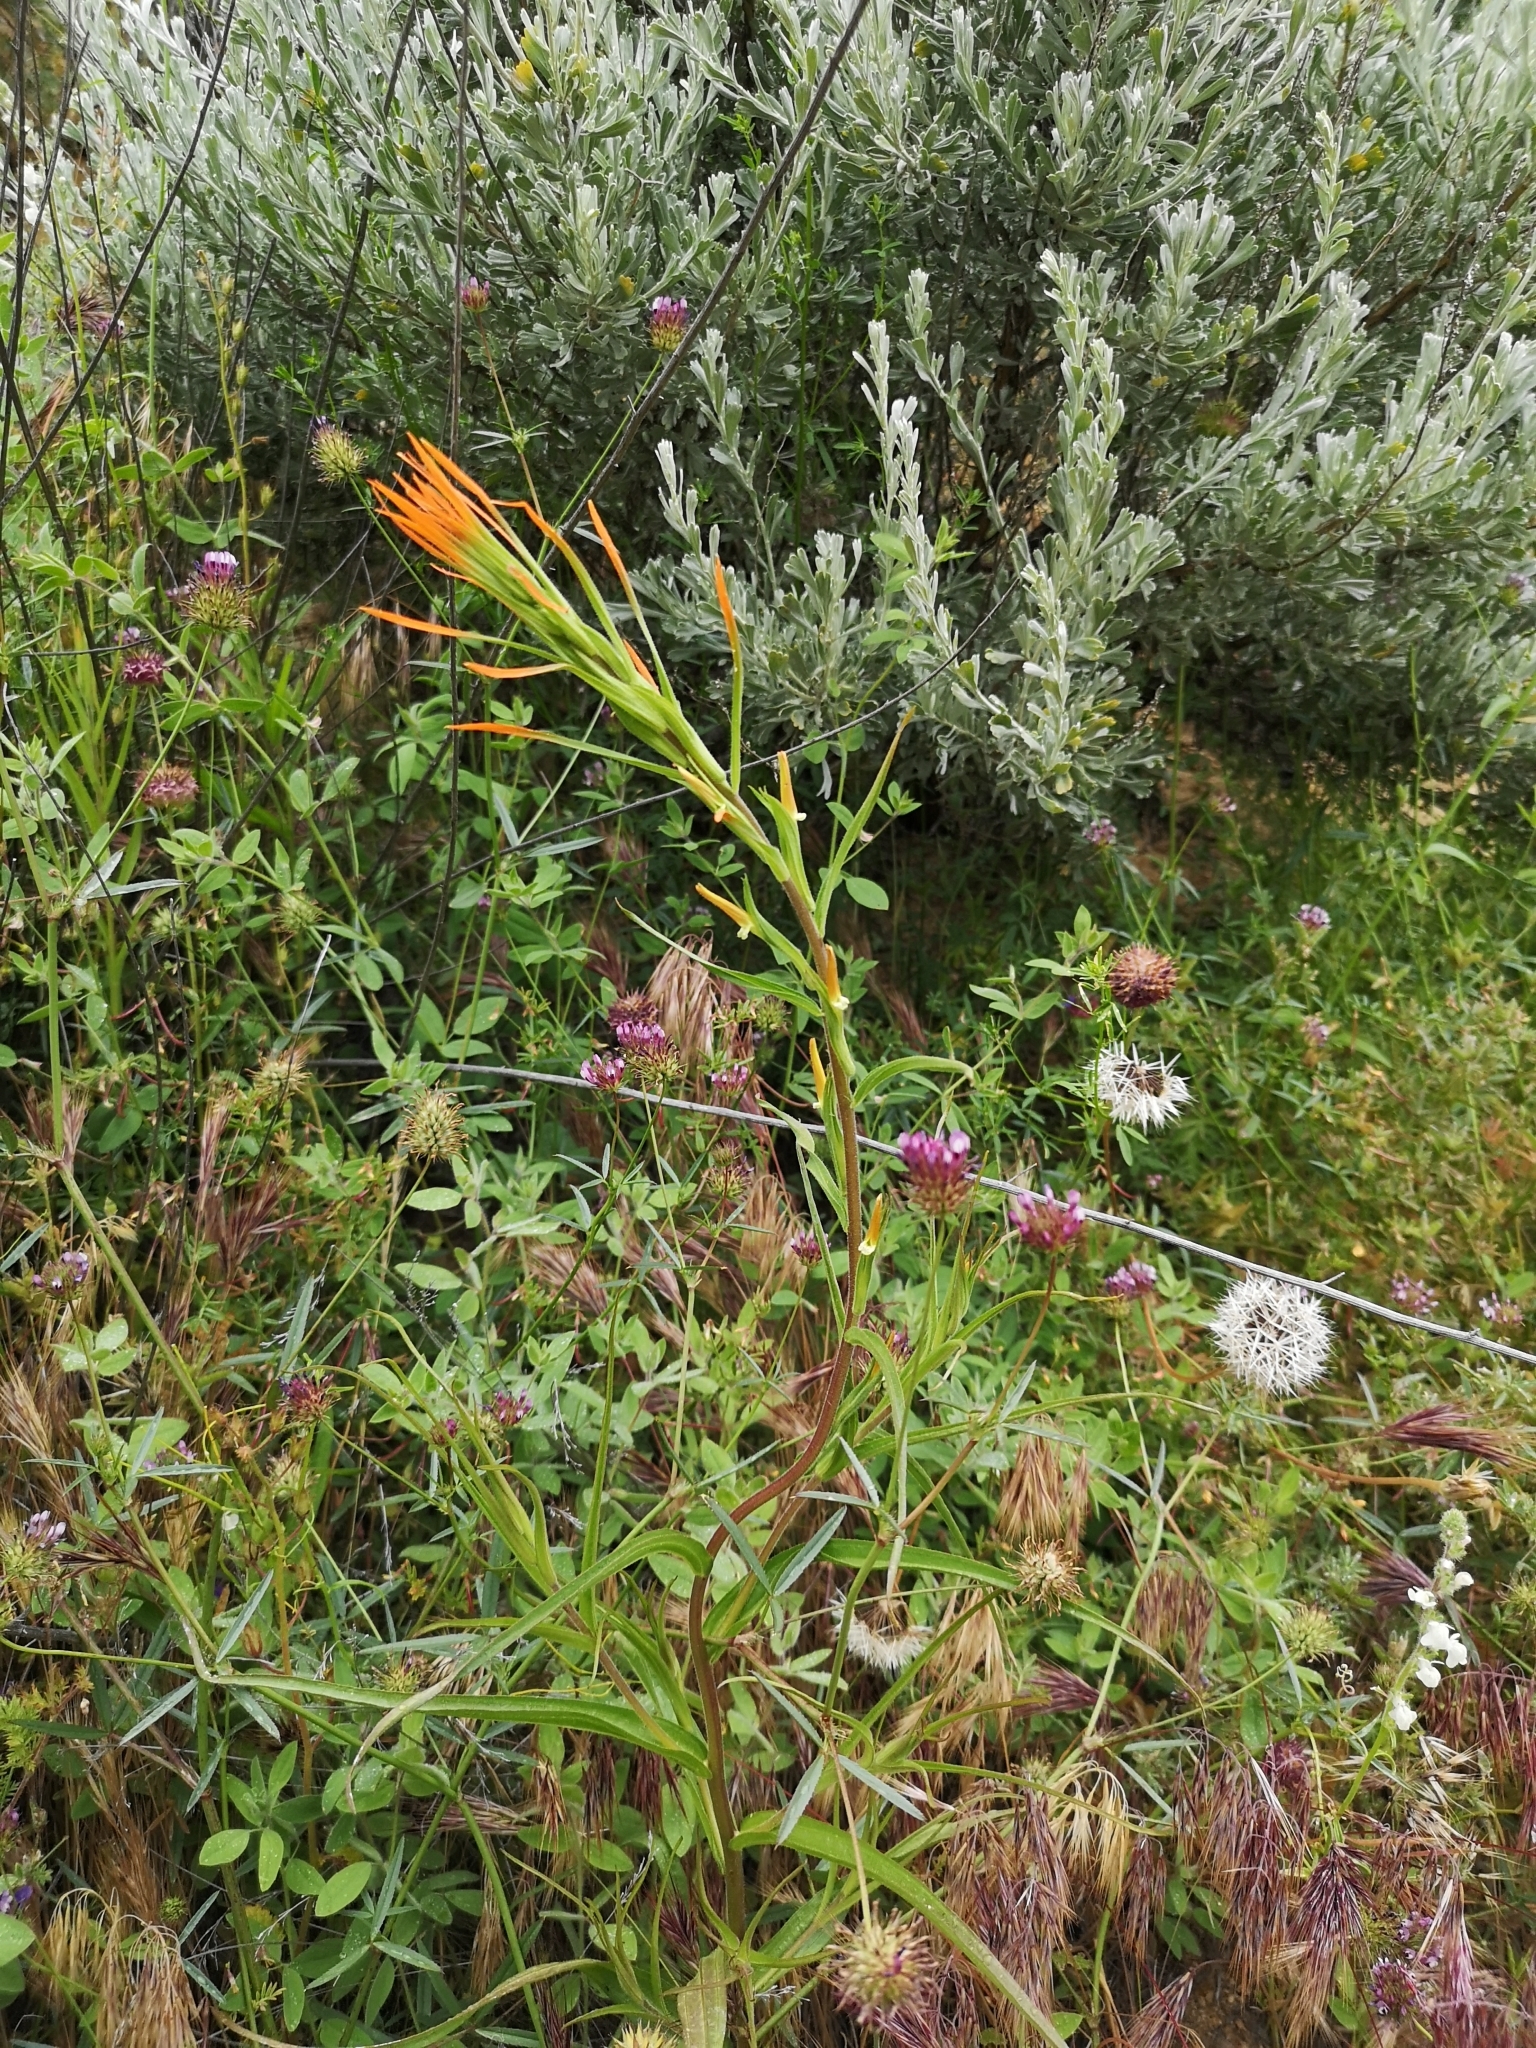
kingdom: Plantae
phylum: Tracheophyta
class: Magnoliopsida
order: Lamiales
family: Orobanchaceae
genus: Castilleja
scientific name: Castilleja minor
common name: Seep paintbrush
